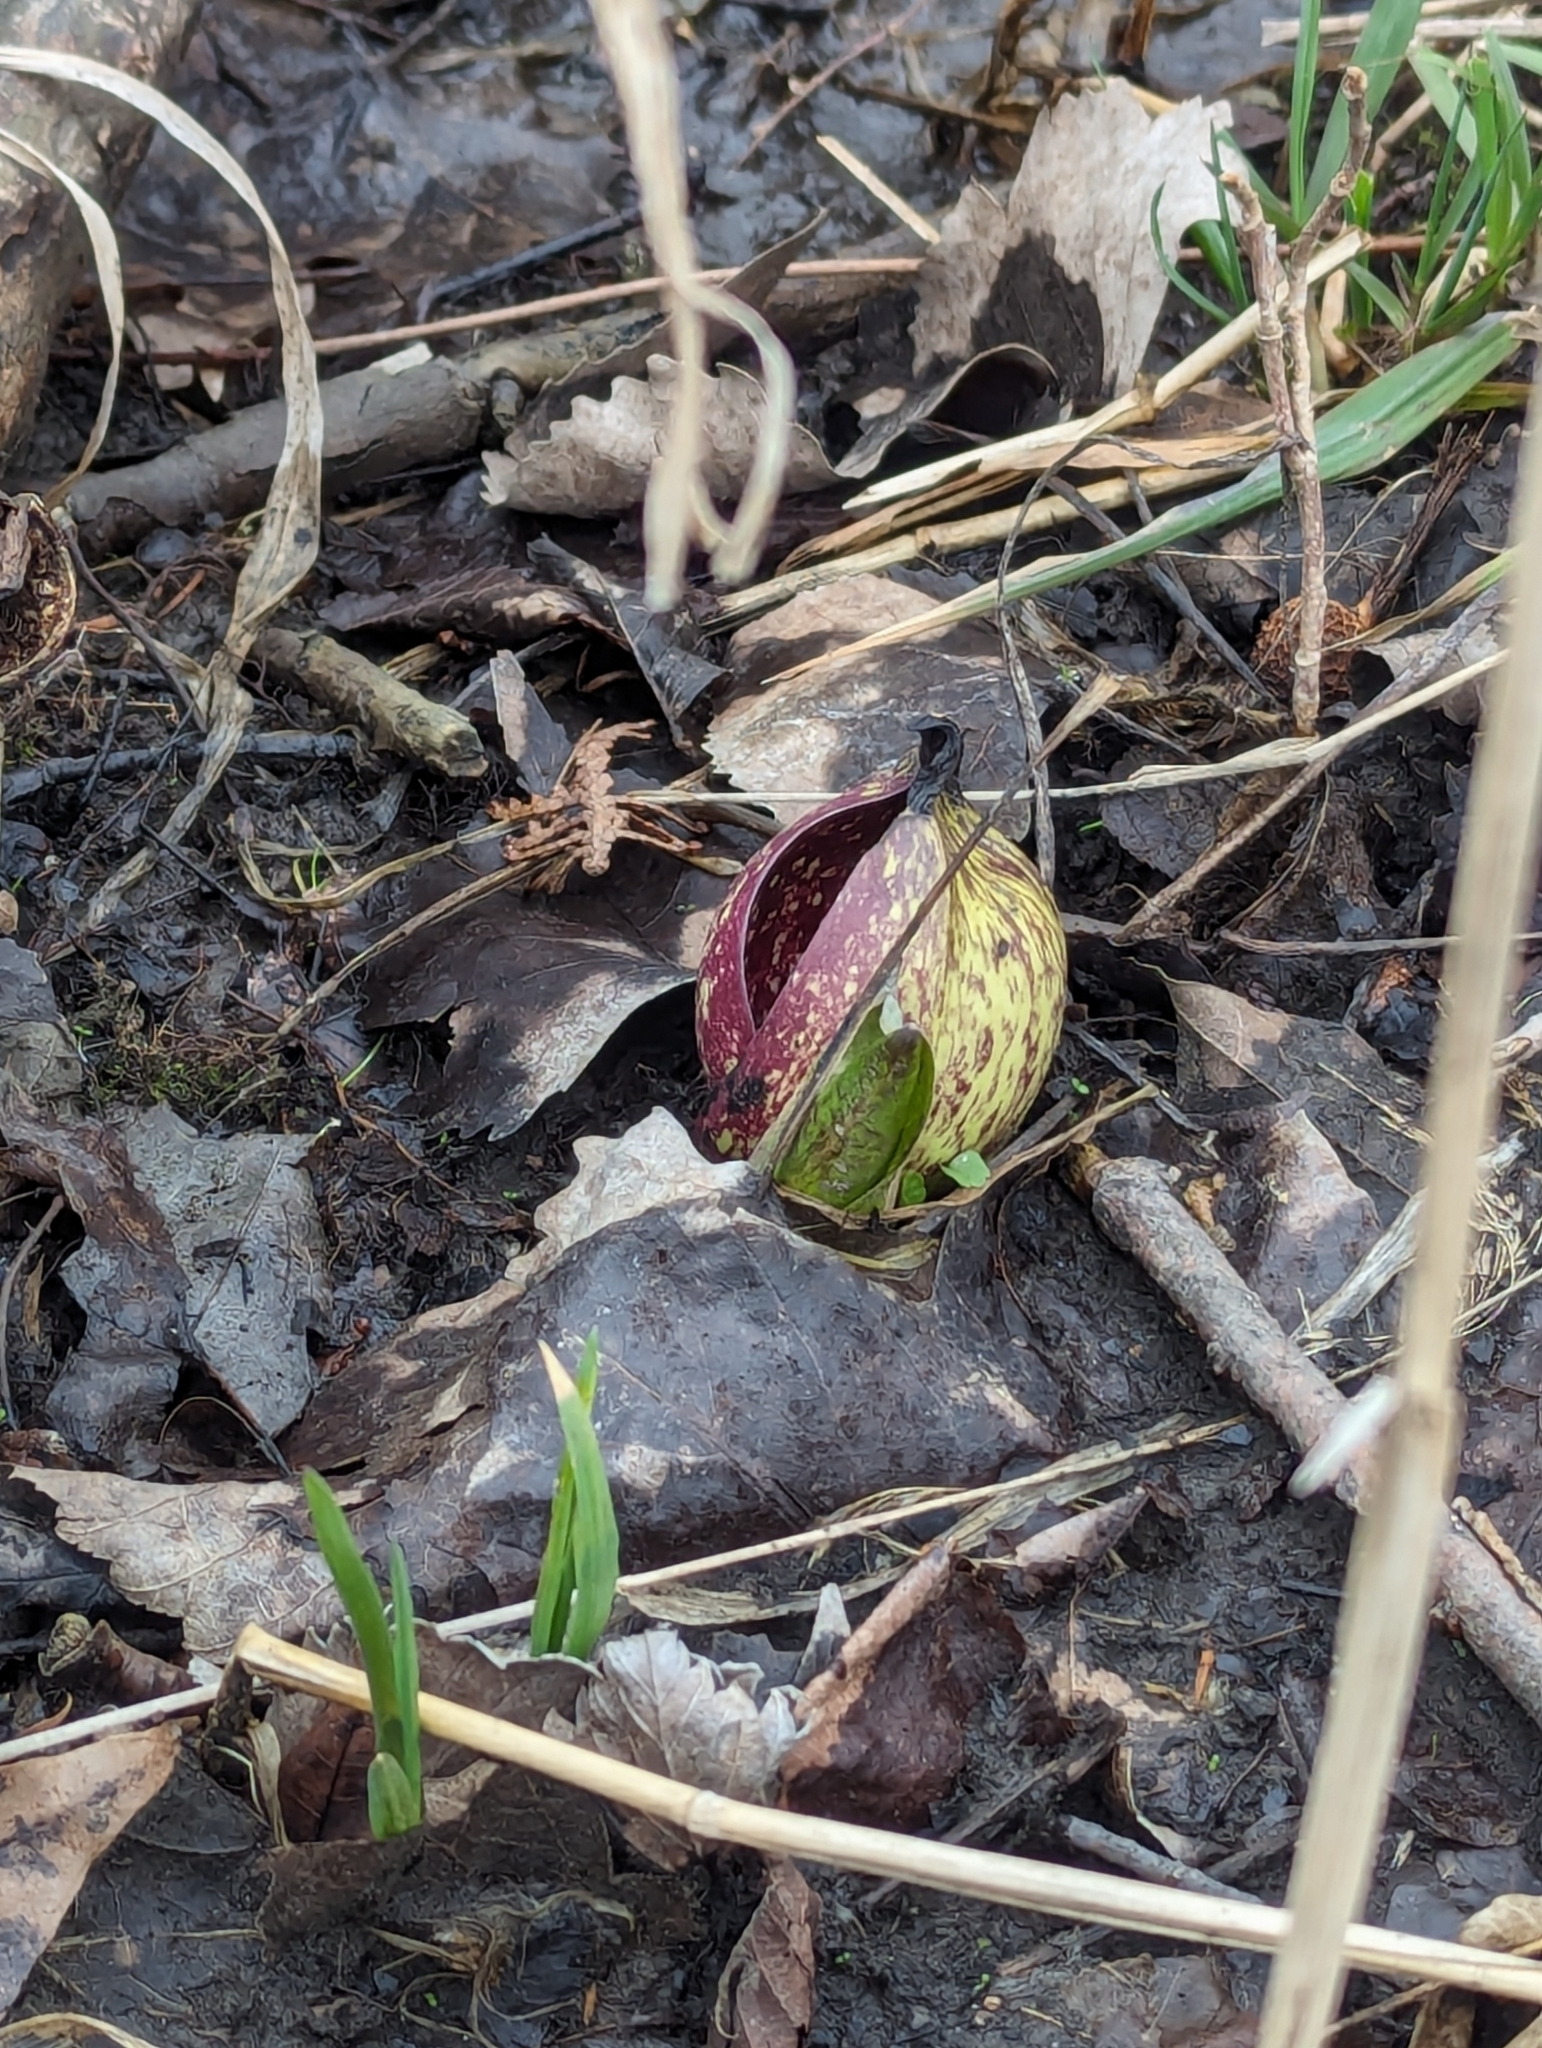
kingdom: Plantae
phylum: Tracheophyta
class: Liliopsida
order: Alismatales
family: Araceae
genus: Symplocarpus
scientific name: Symplocarpus foetidus
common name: Eastern skunk cabbage
